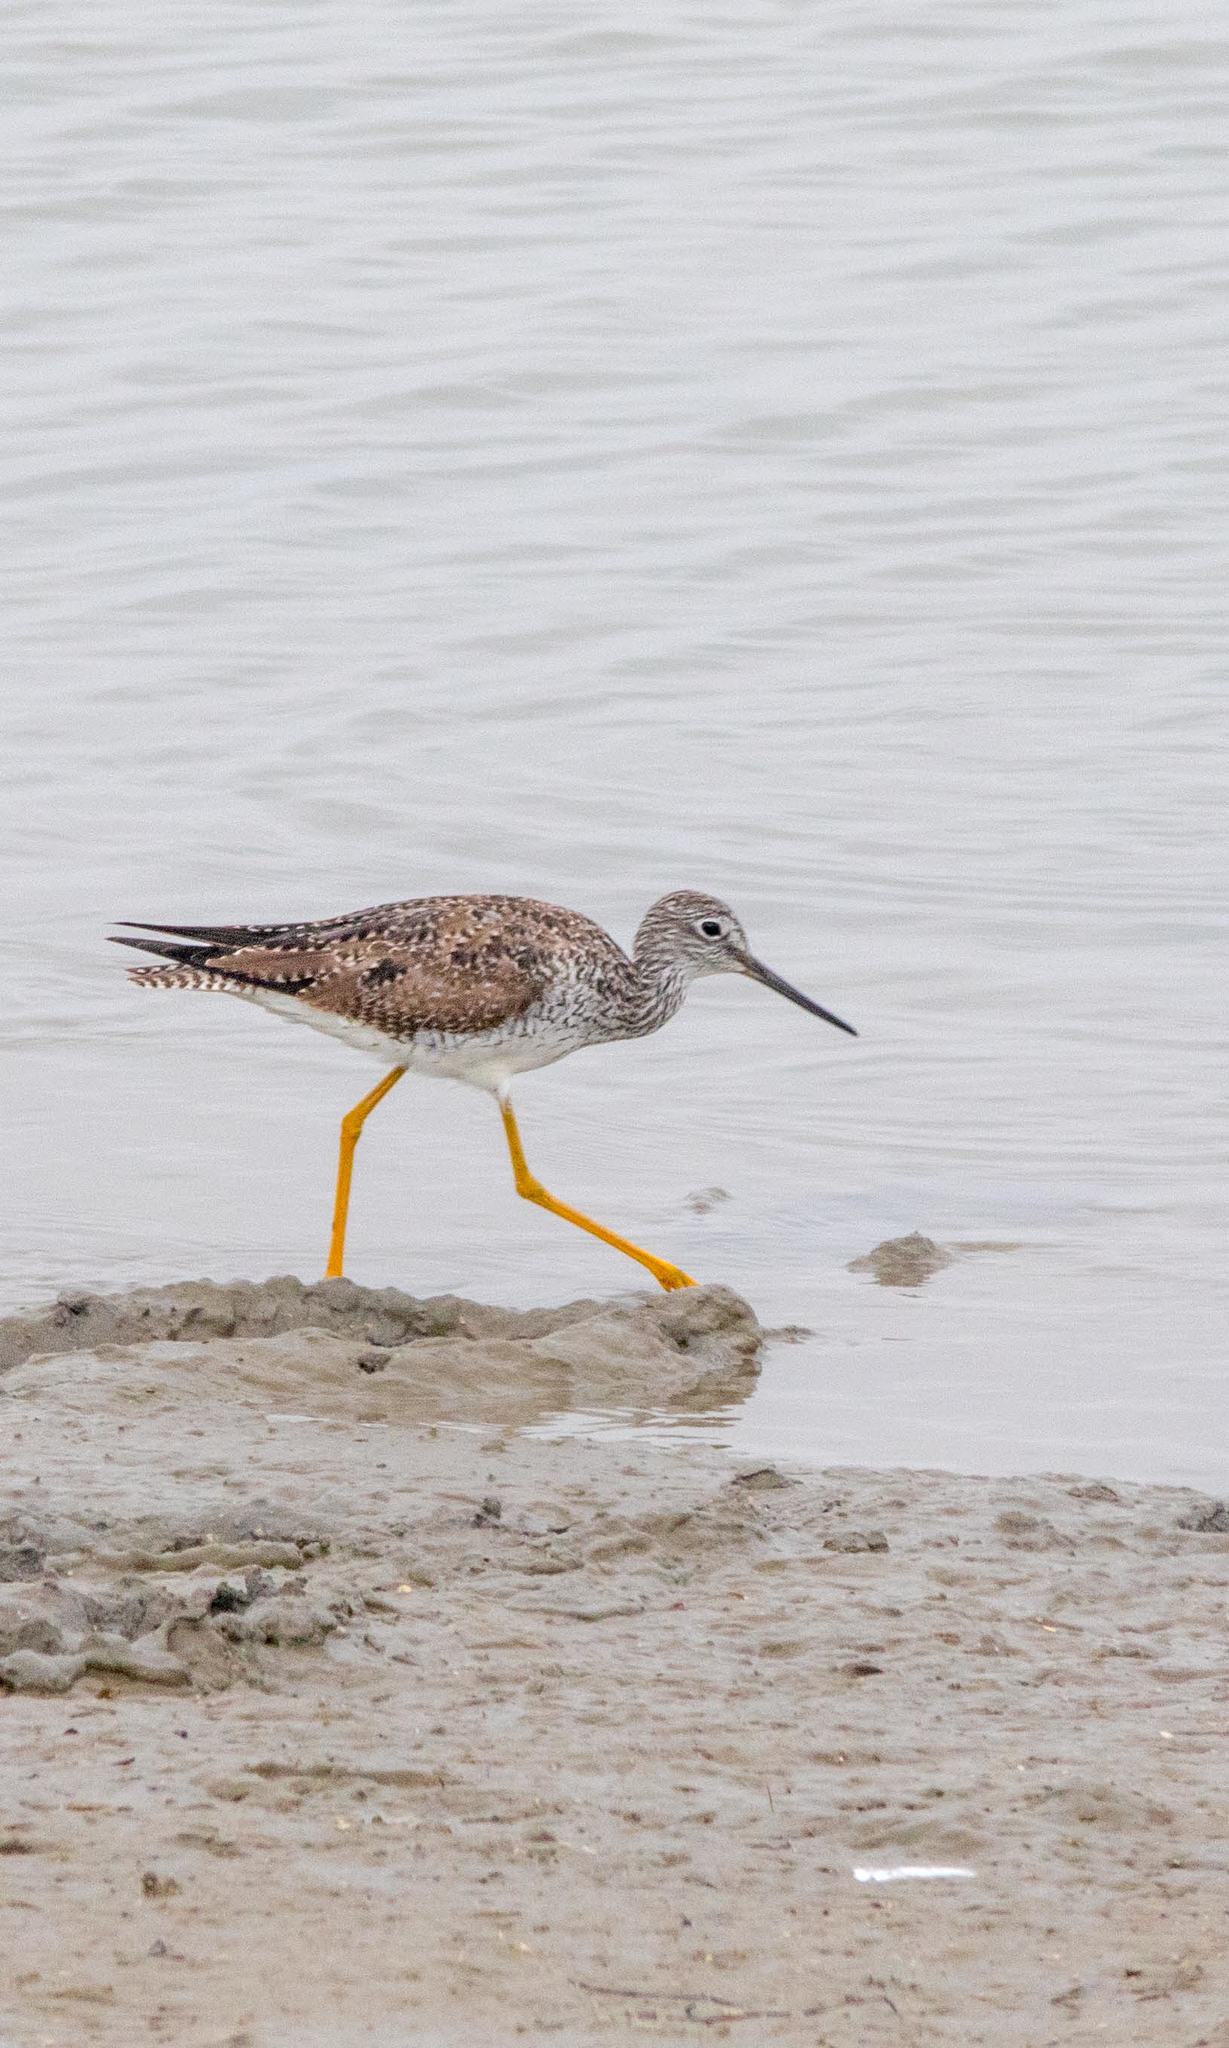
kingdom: Animalia
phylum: Chordata
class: Aves
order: Charadriiformes
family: Scolopacidae
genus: Tringa
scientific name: Tringa melanoleuca
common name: Greater yellowlegs
